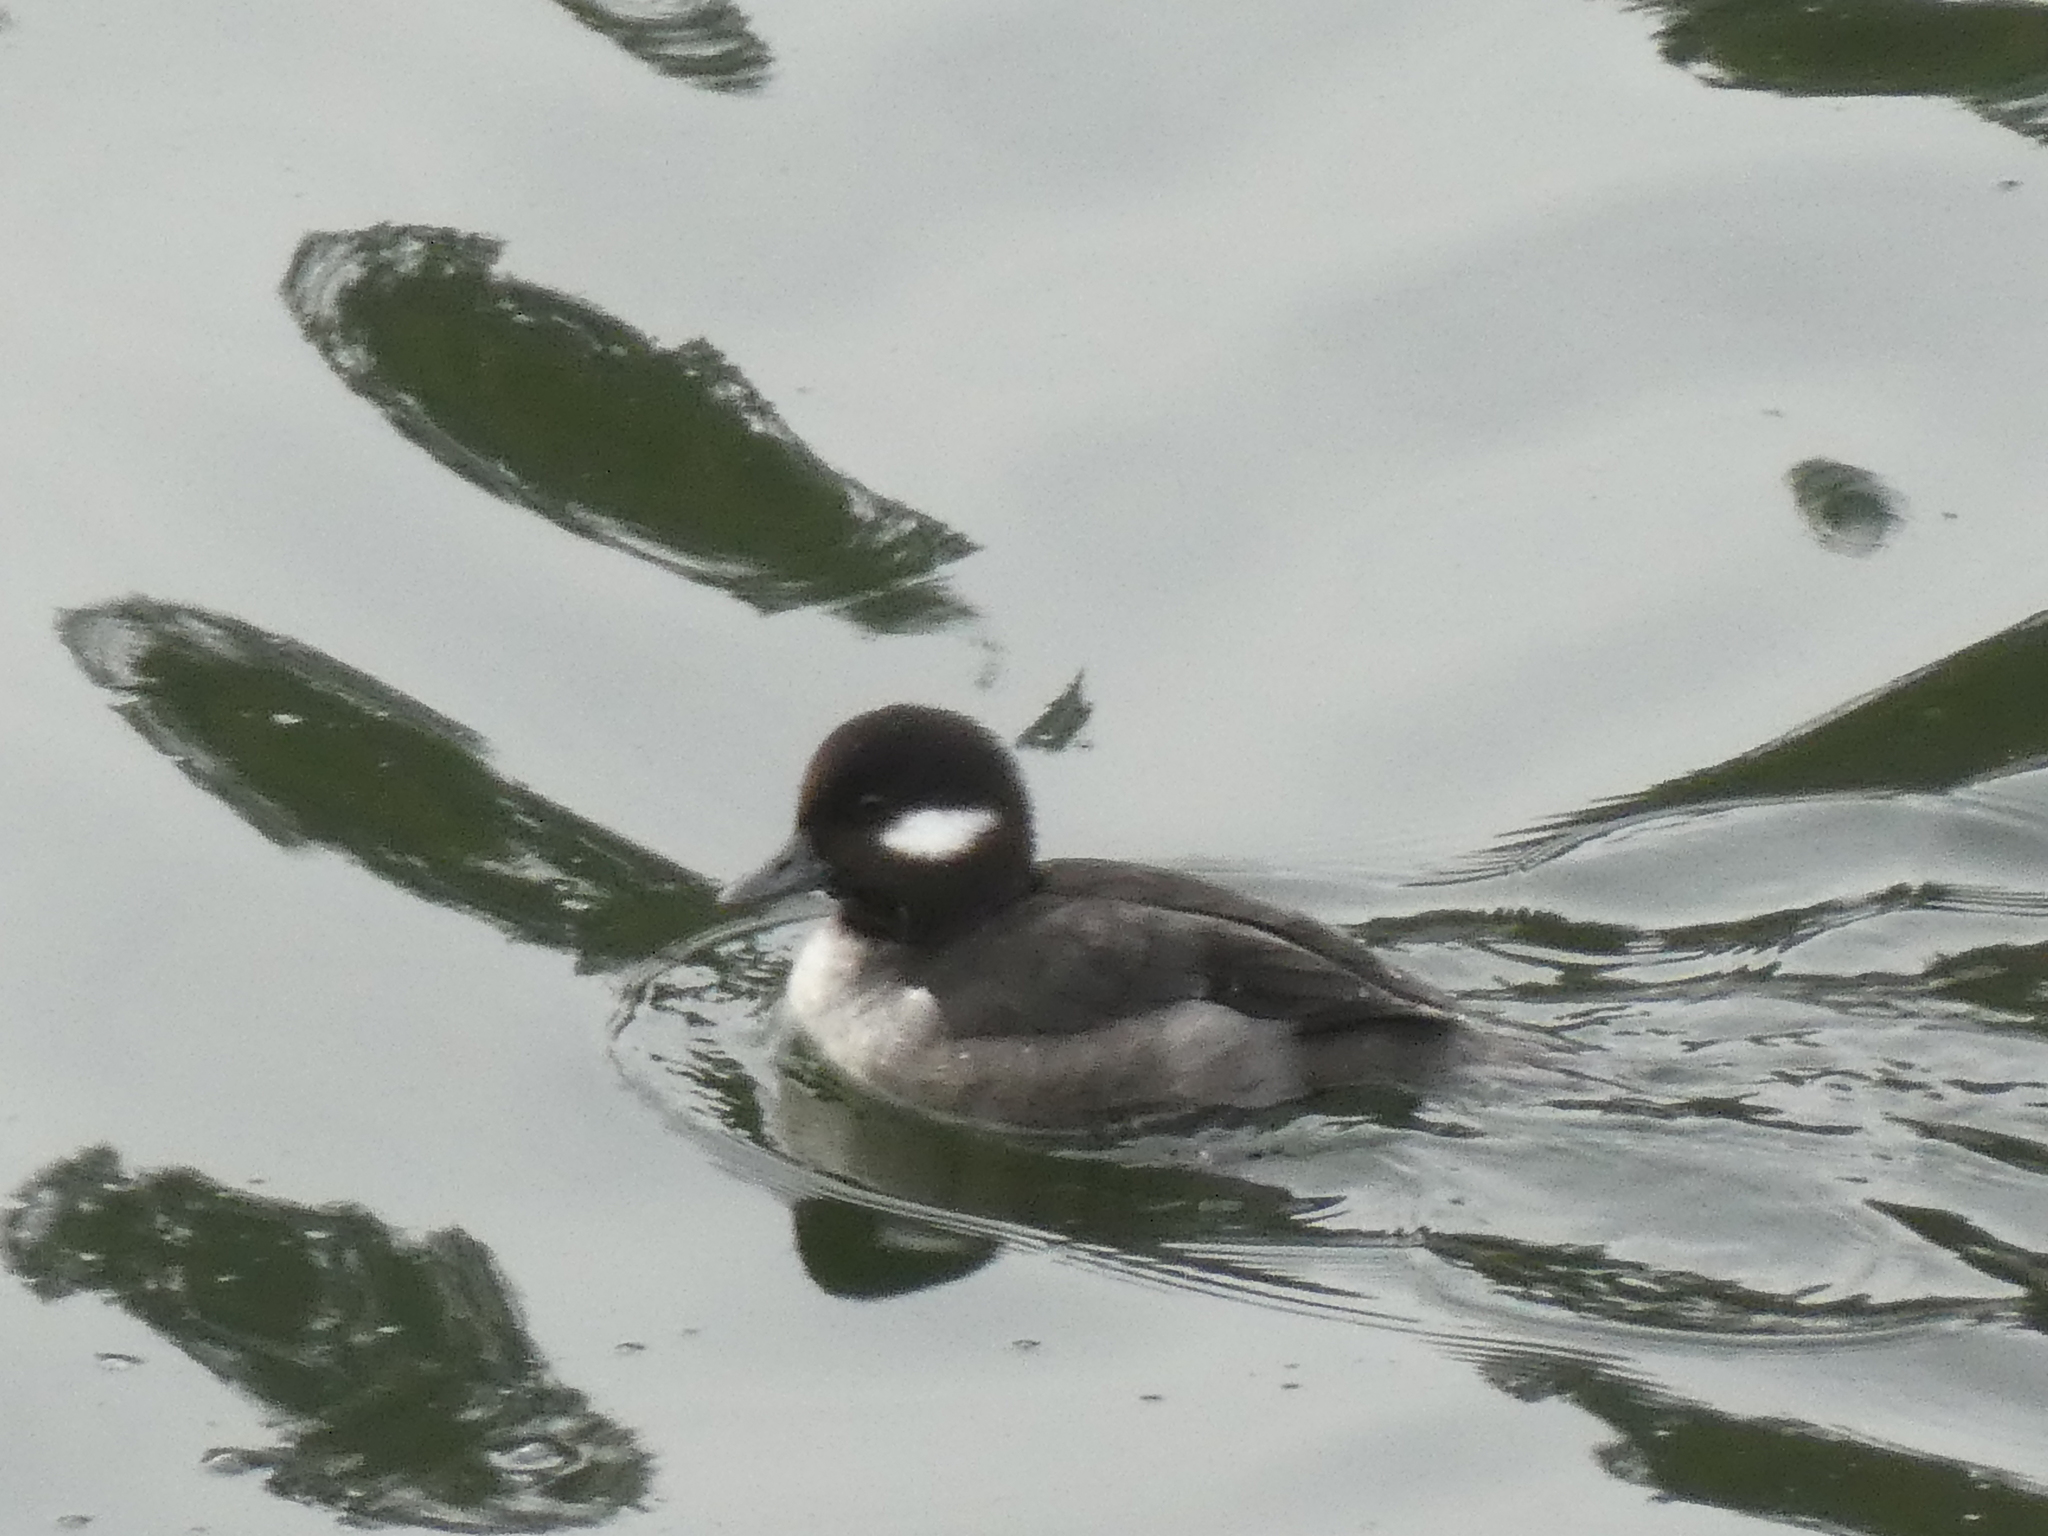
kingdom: Animalia
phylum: Chordata
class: Aves
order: Anseriformes
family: Anatidae
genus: Bucephala
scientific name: Bucephala albeola
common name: Bufflehead
